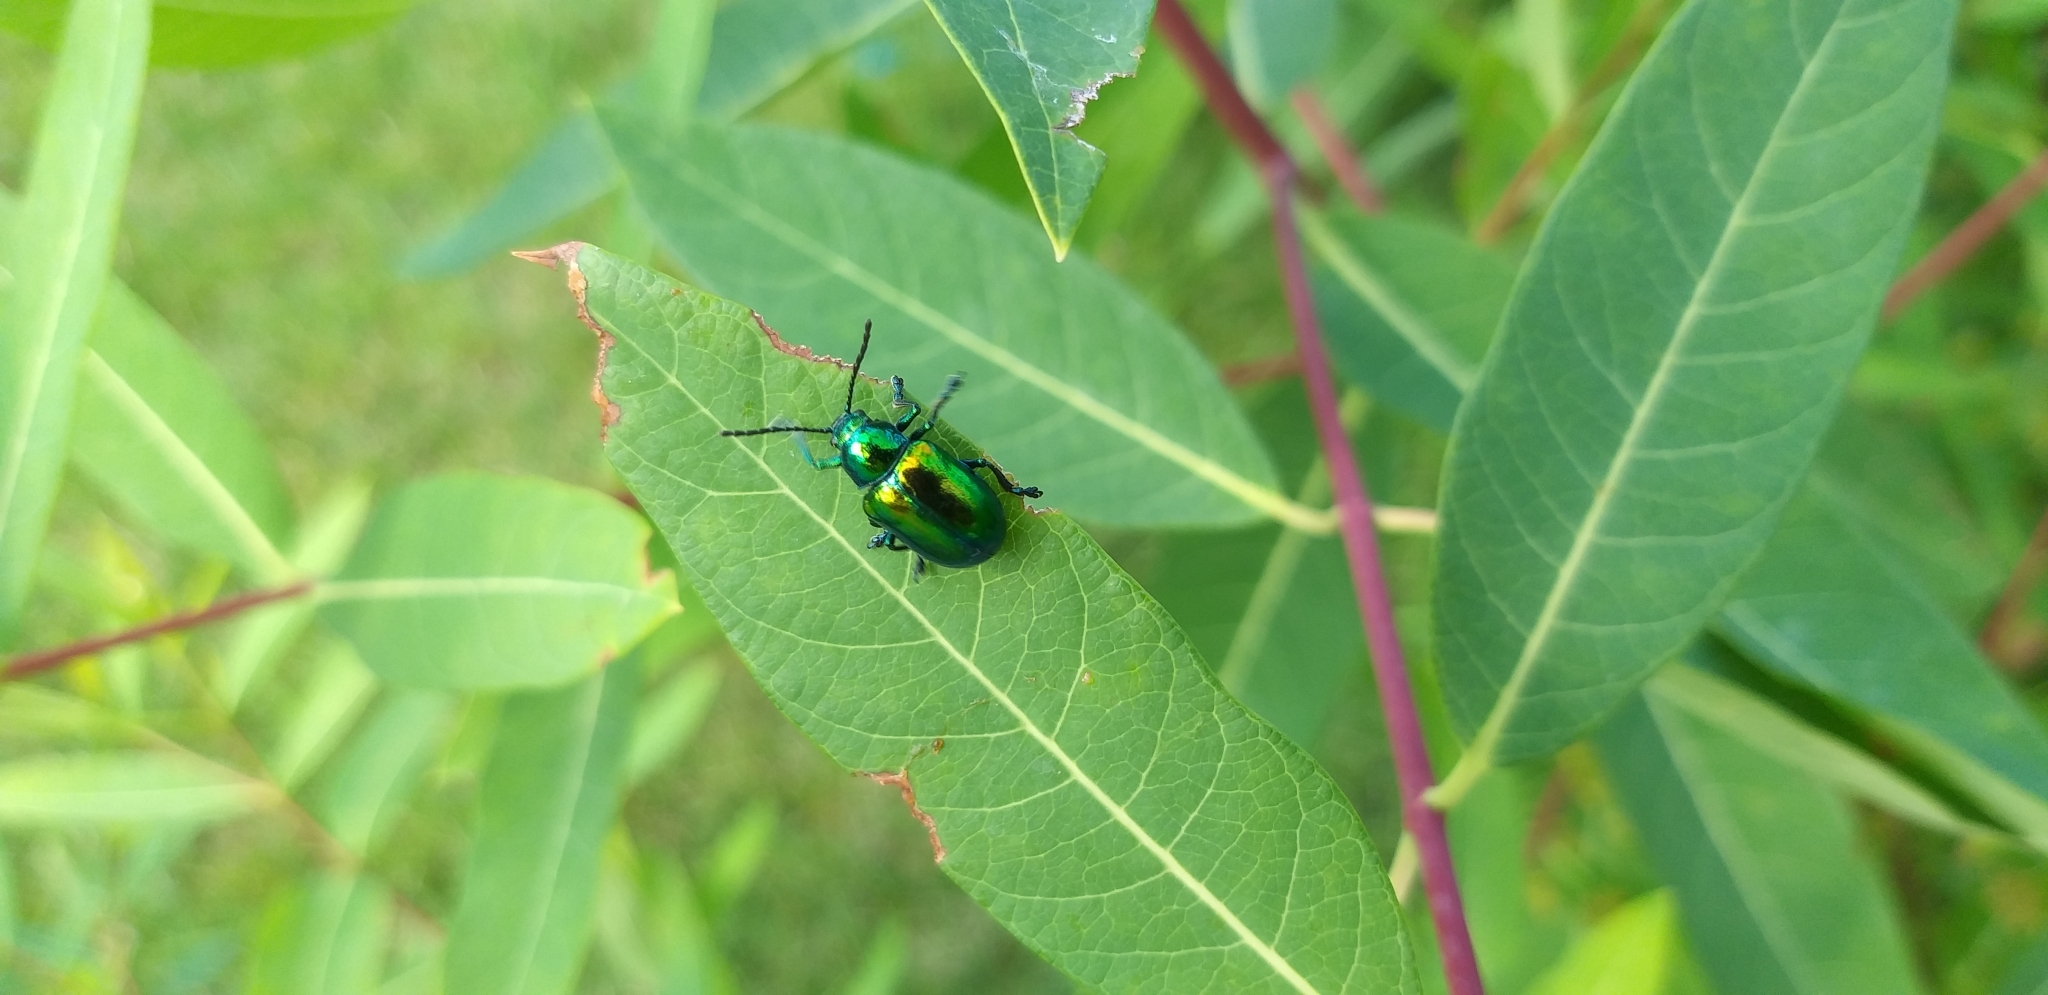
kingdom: Animalia
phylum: Arthropoda
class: Insecta
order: Coleoptera
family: Chrysomelidae
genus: Chrysochus
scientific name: Chrysochus auratus
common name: Dogbane leaf beetle
